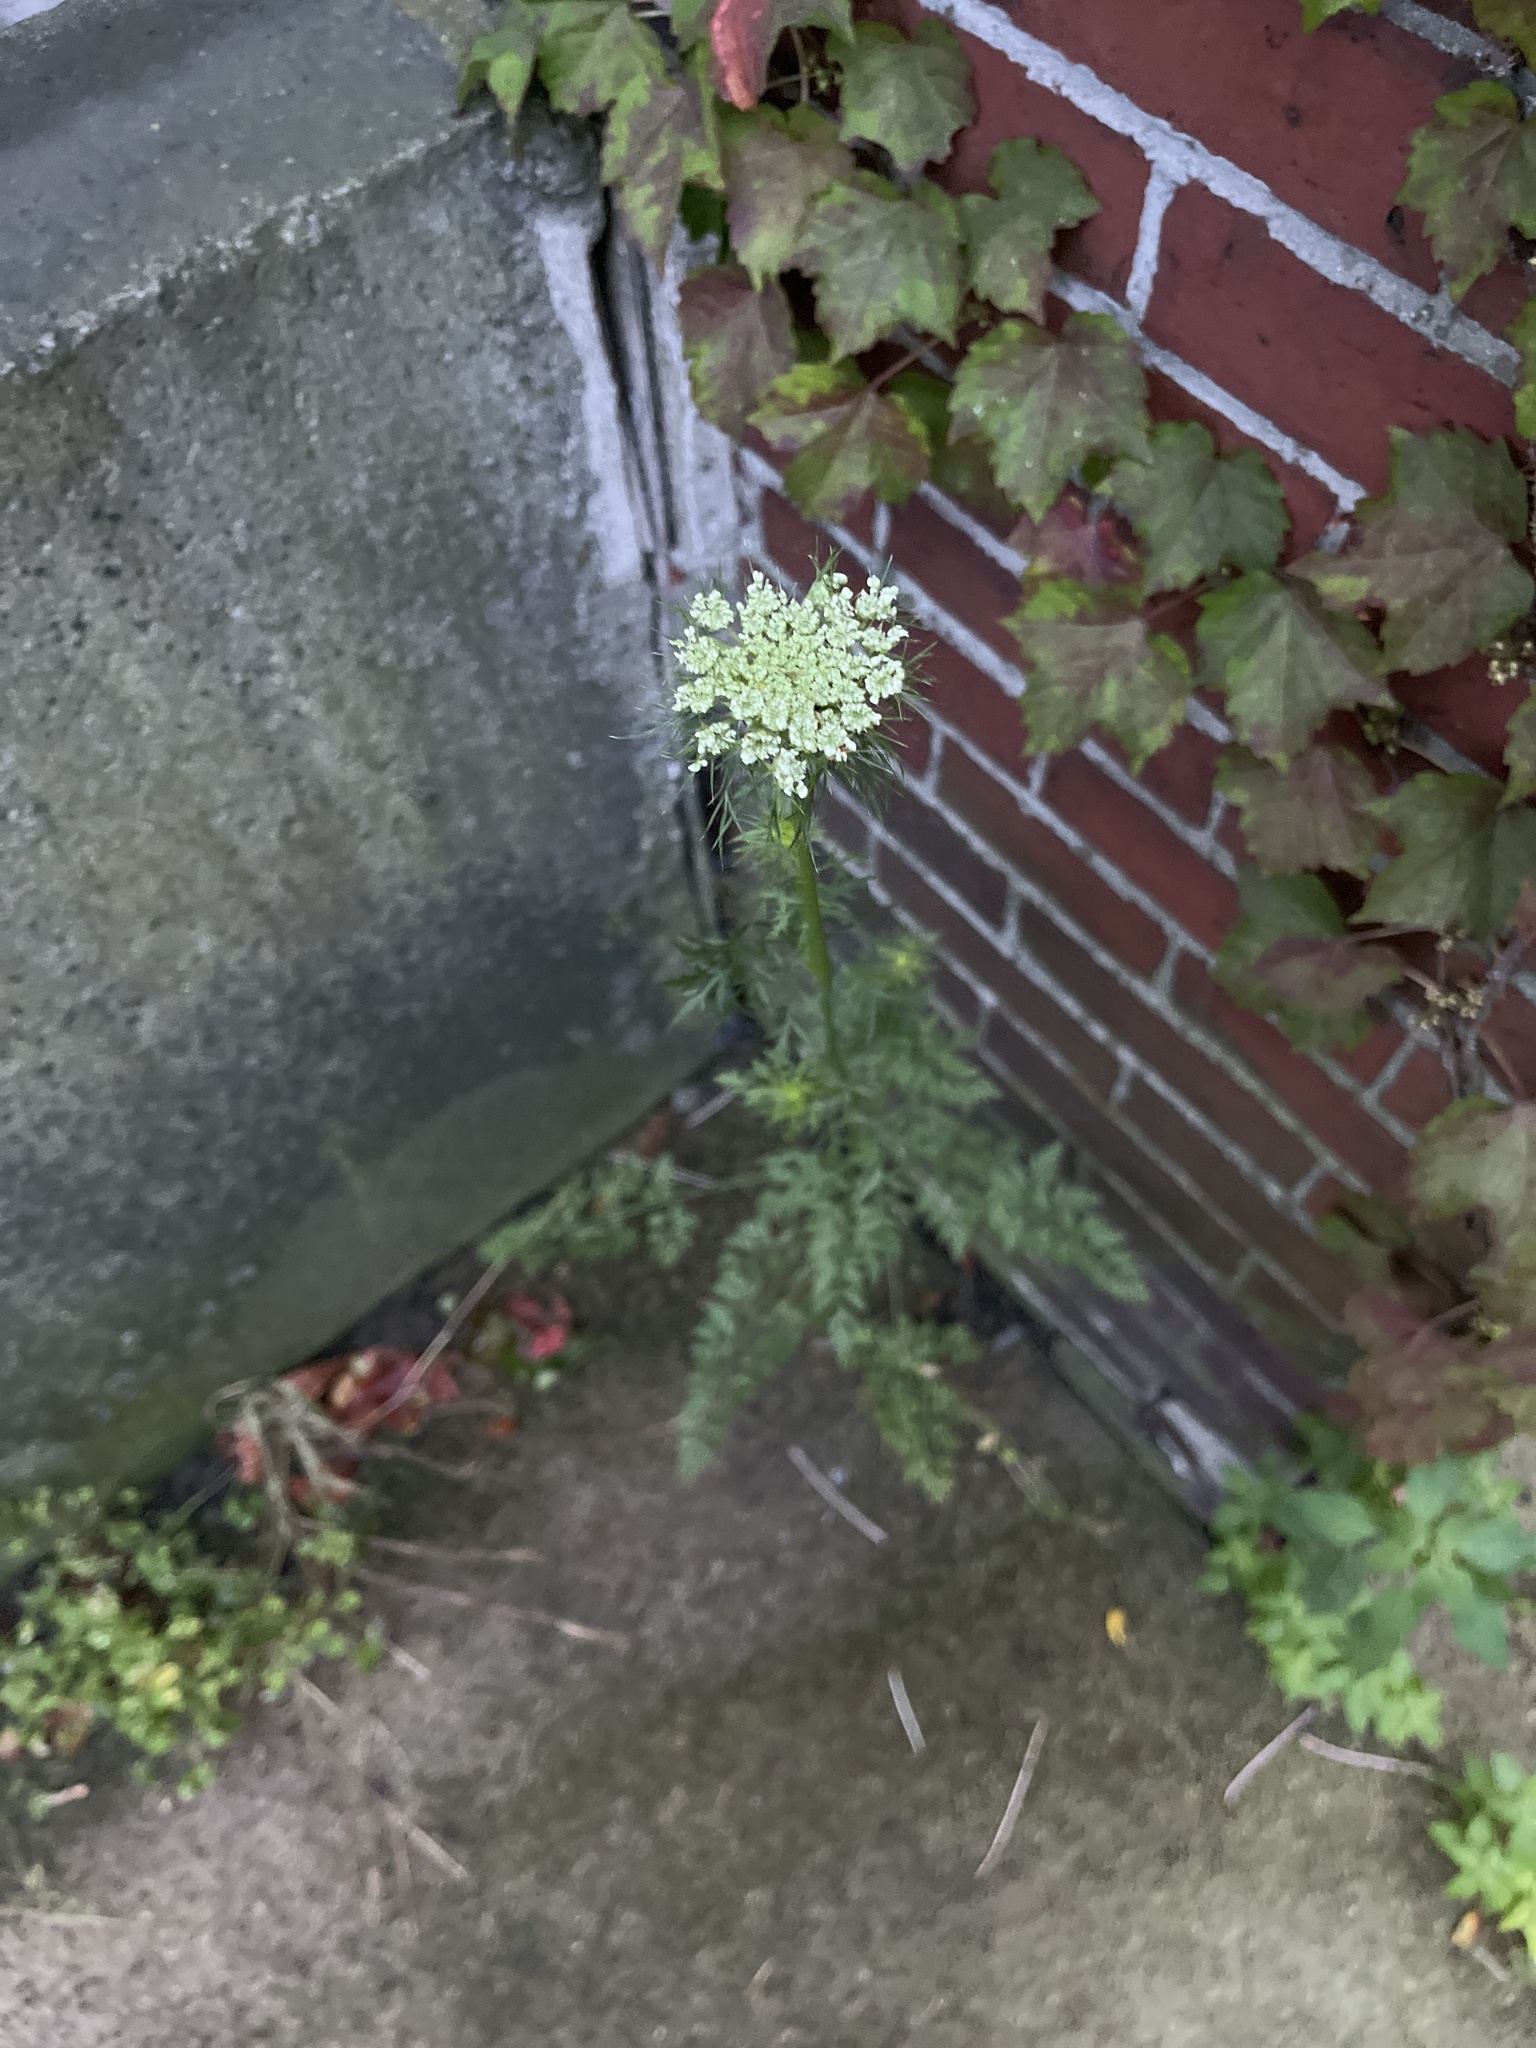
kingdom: Plantae
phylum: Tracheophyta
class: Magnoliopsida
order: Apiales
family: Apiaceae
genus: Daucus
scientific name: Daucus carota
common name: Wild carrot
